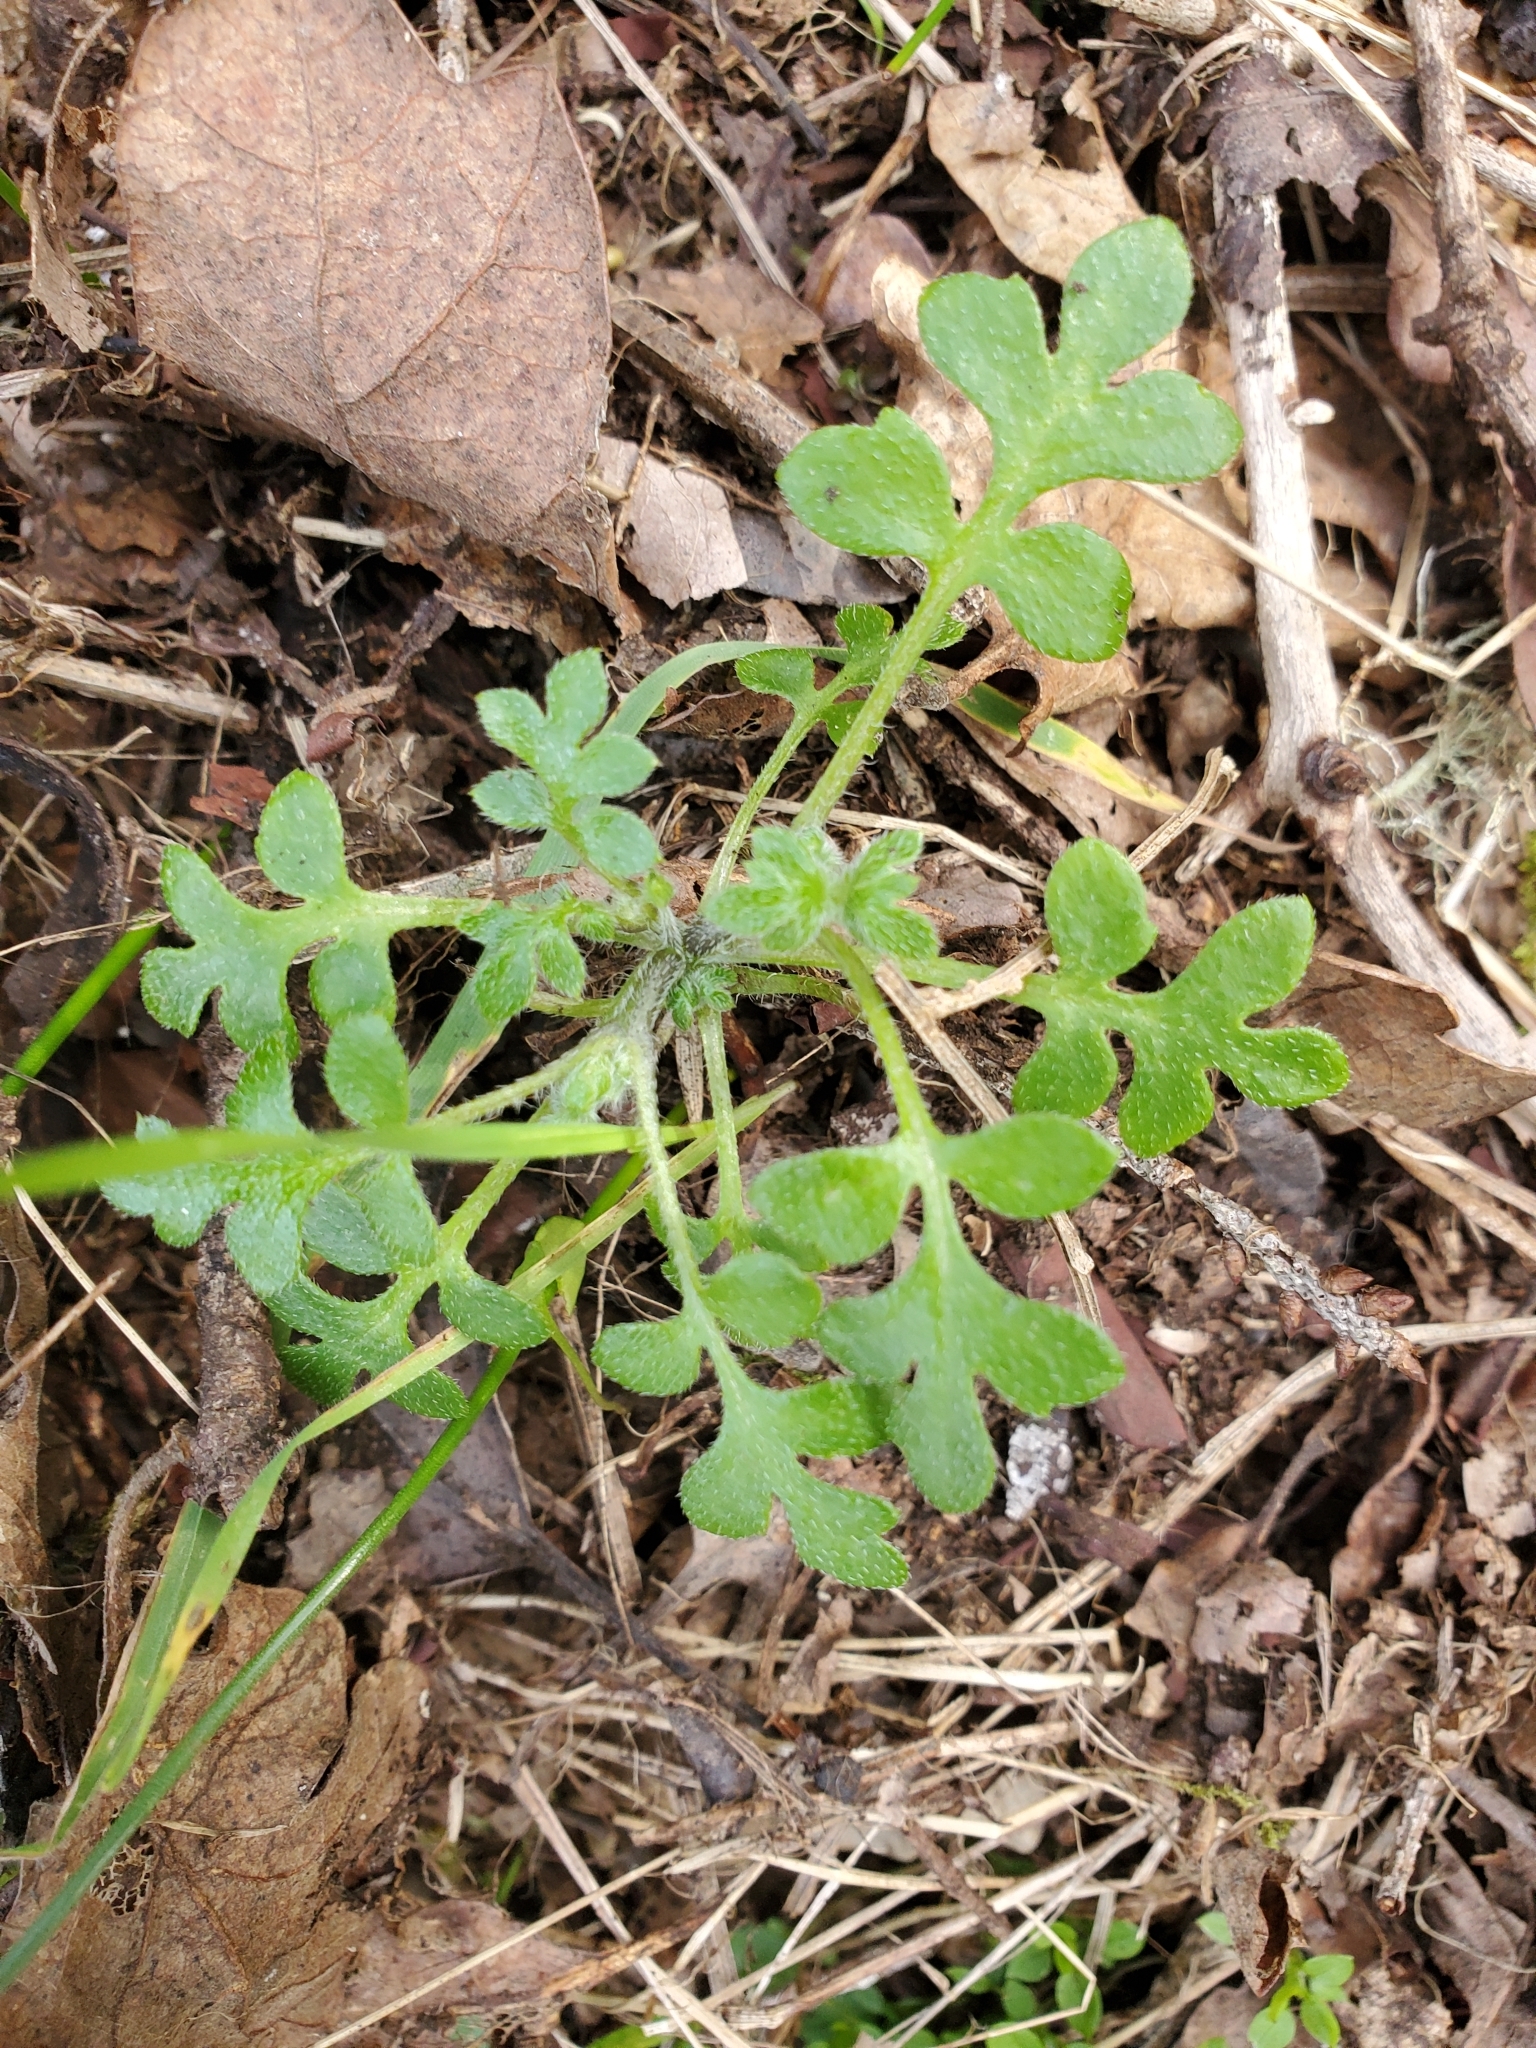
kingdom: Plantae
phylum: Tracheophyta
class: Magnoliopsida
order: Boraginales
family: Hydrophyllaceae
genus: Nemophila
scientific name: Nemophila parviflora
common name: Small-flowered baby-blue-eyes
